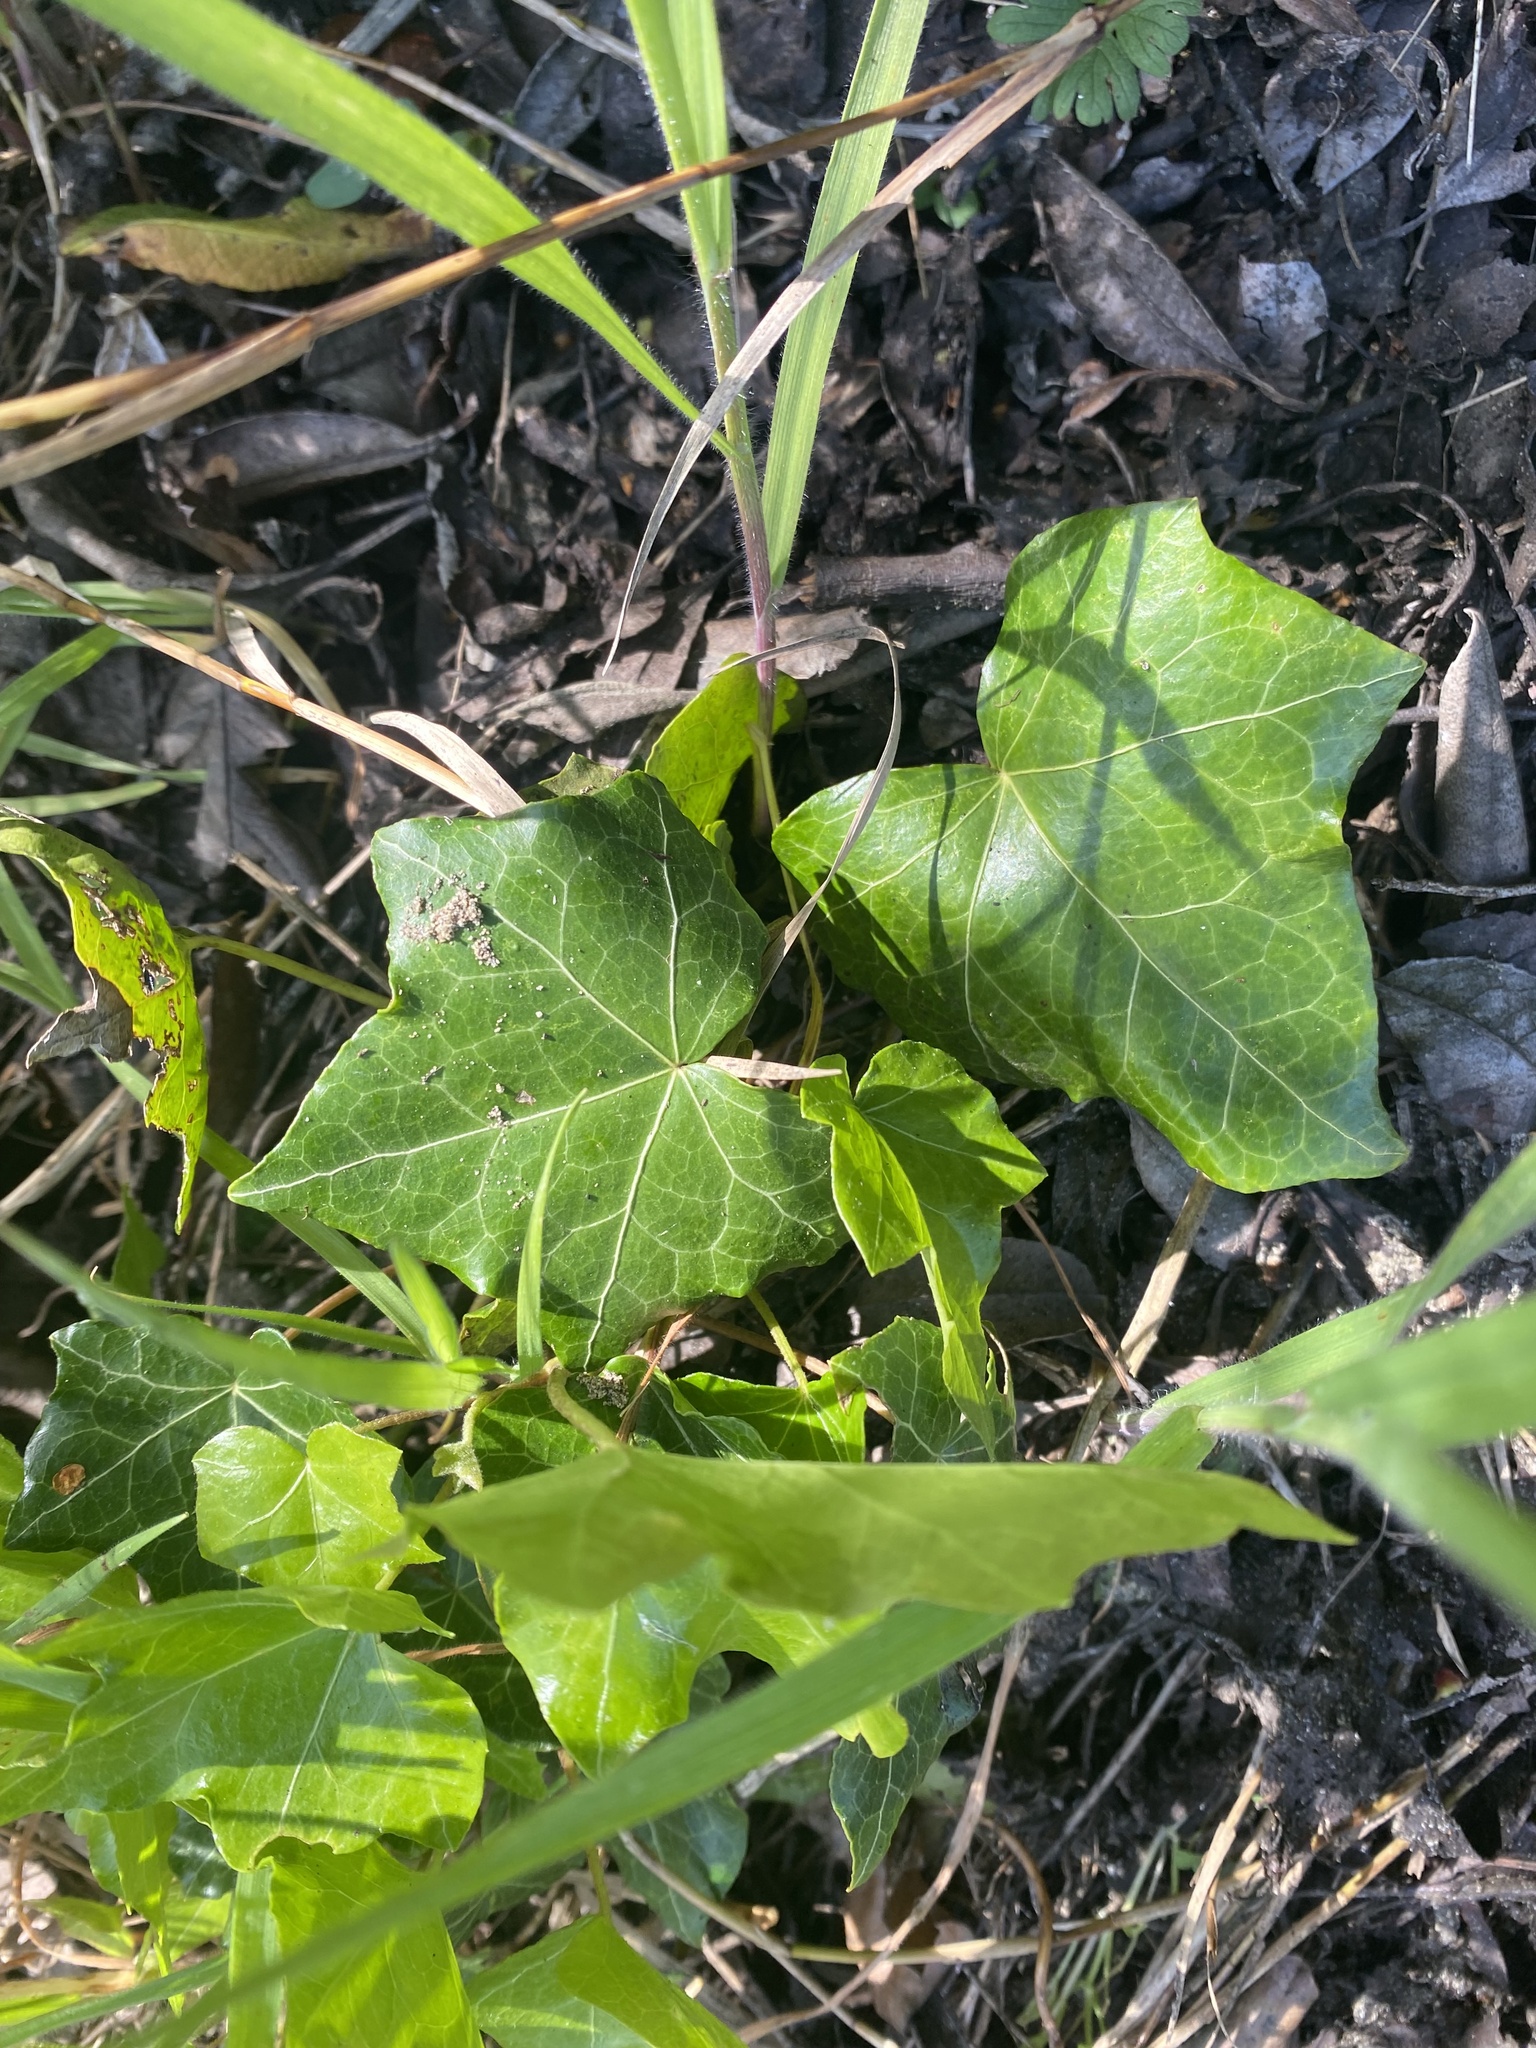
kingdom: Plantae
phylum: Tracheophyta
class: Magnoliopsida
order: Apiales
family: Araliaceae
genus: Hedera
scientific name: Hedera helix
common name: Ivy
